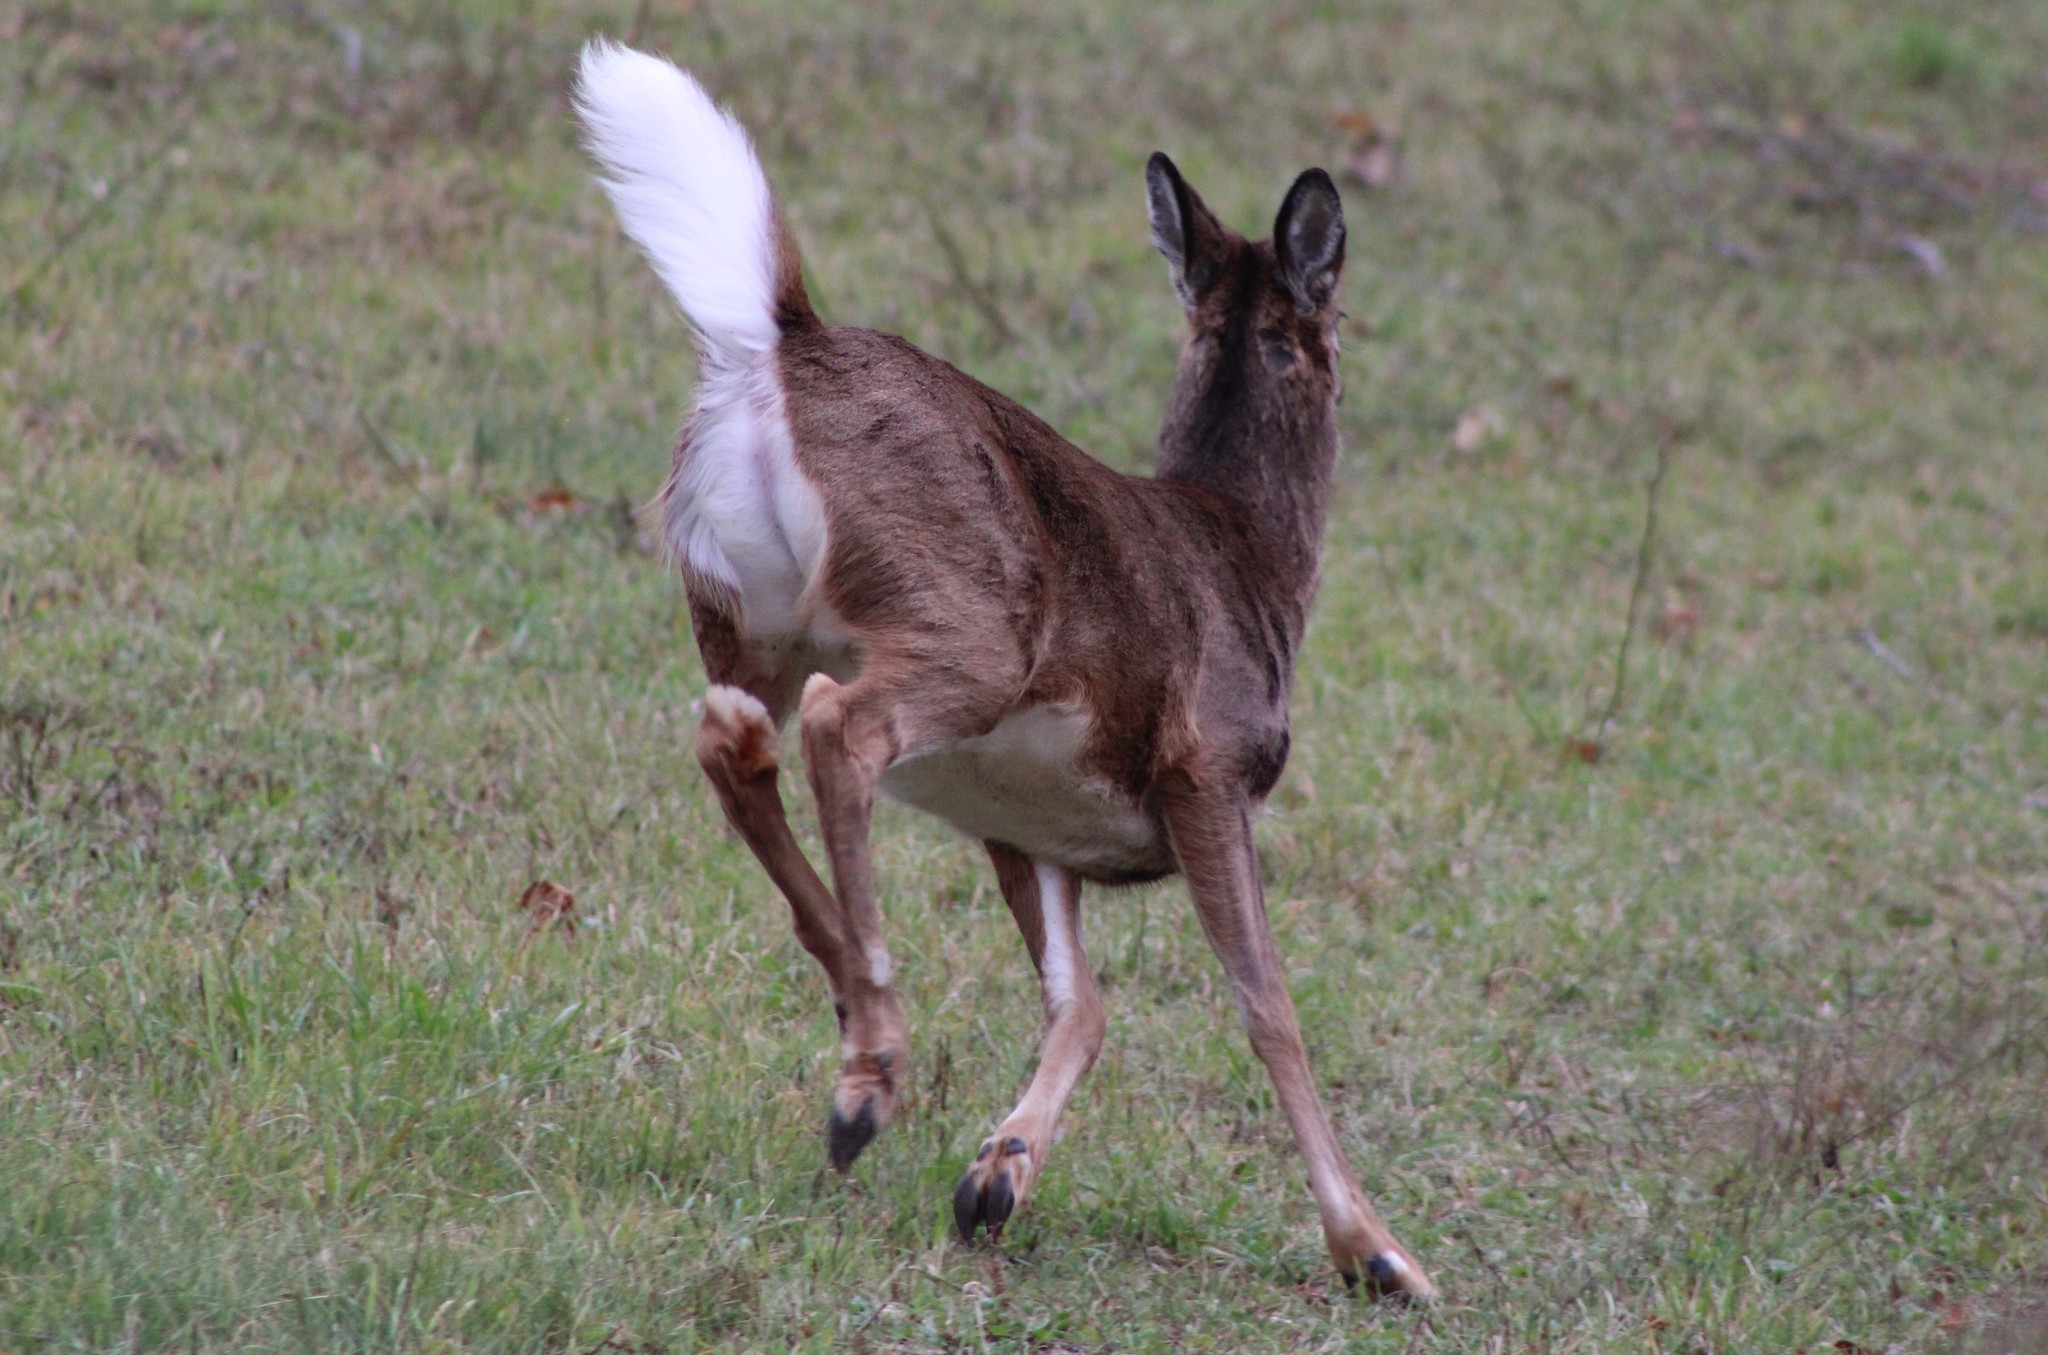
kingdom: Animalia
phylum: Chordata
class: Mammalia
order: Artiodactyla
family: Cervidae
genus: Odocoileus
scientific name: Odocoileus virginianus
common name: White-tailed deer
